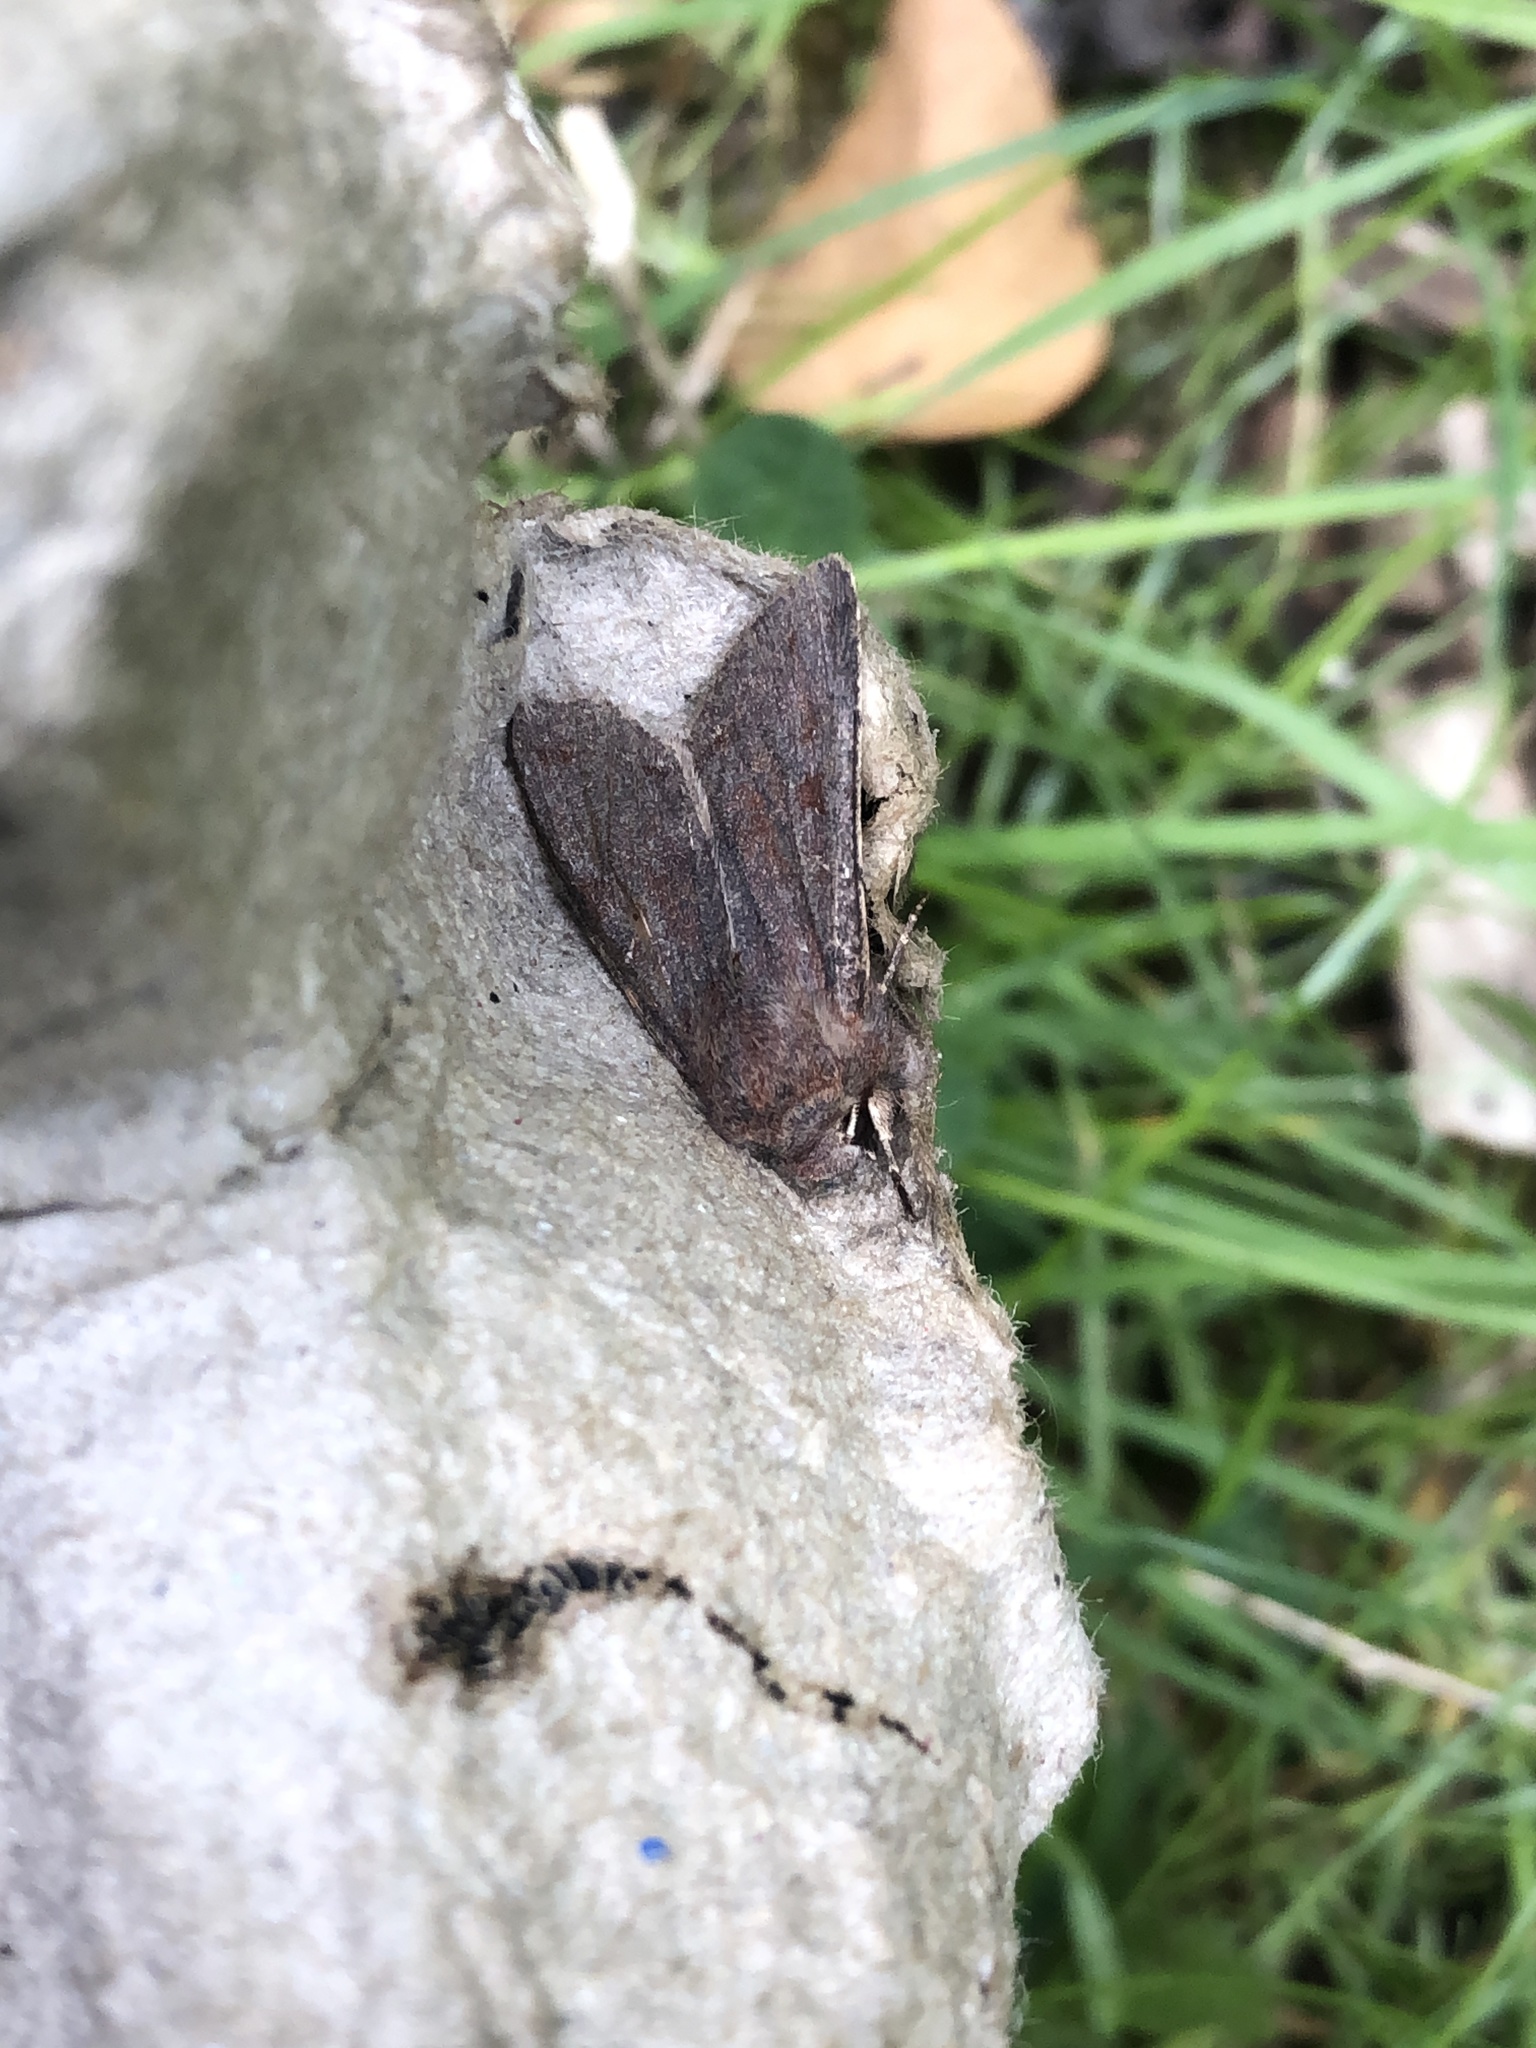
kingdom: Animalia
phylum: Arthropoda
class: Insecta
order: Lepidoptera
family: Noctuidae
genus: Orthosia
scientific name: Orthosia incerta
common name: Clouded drab
